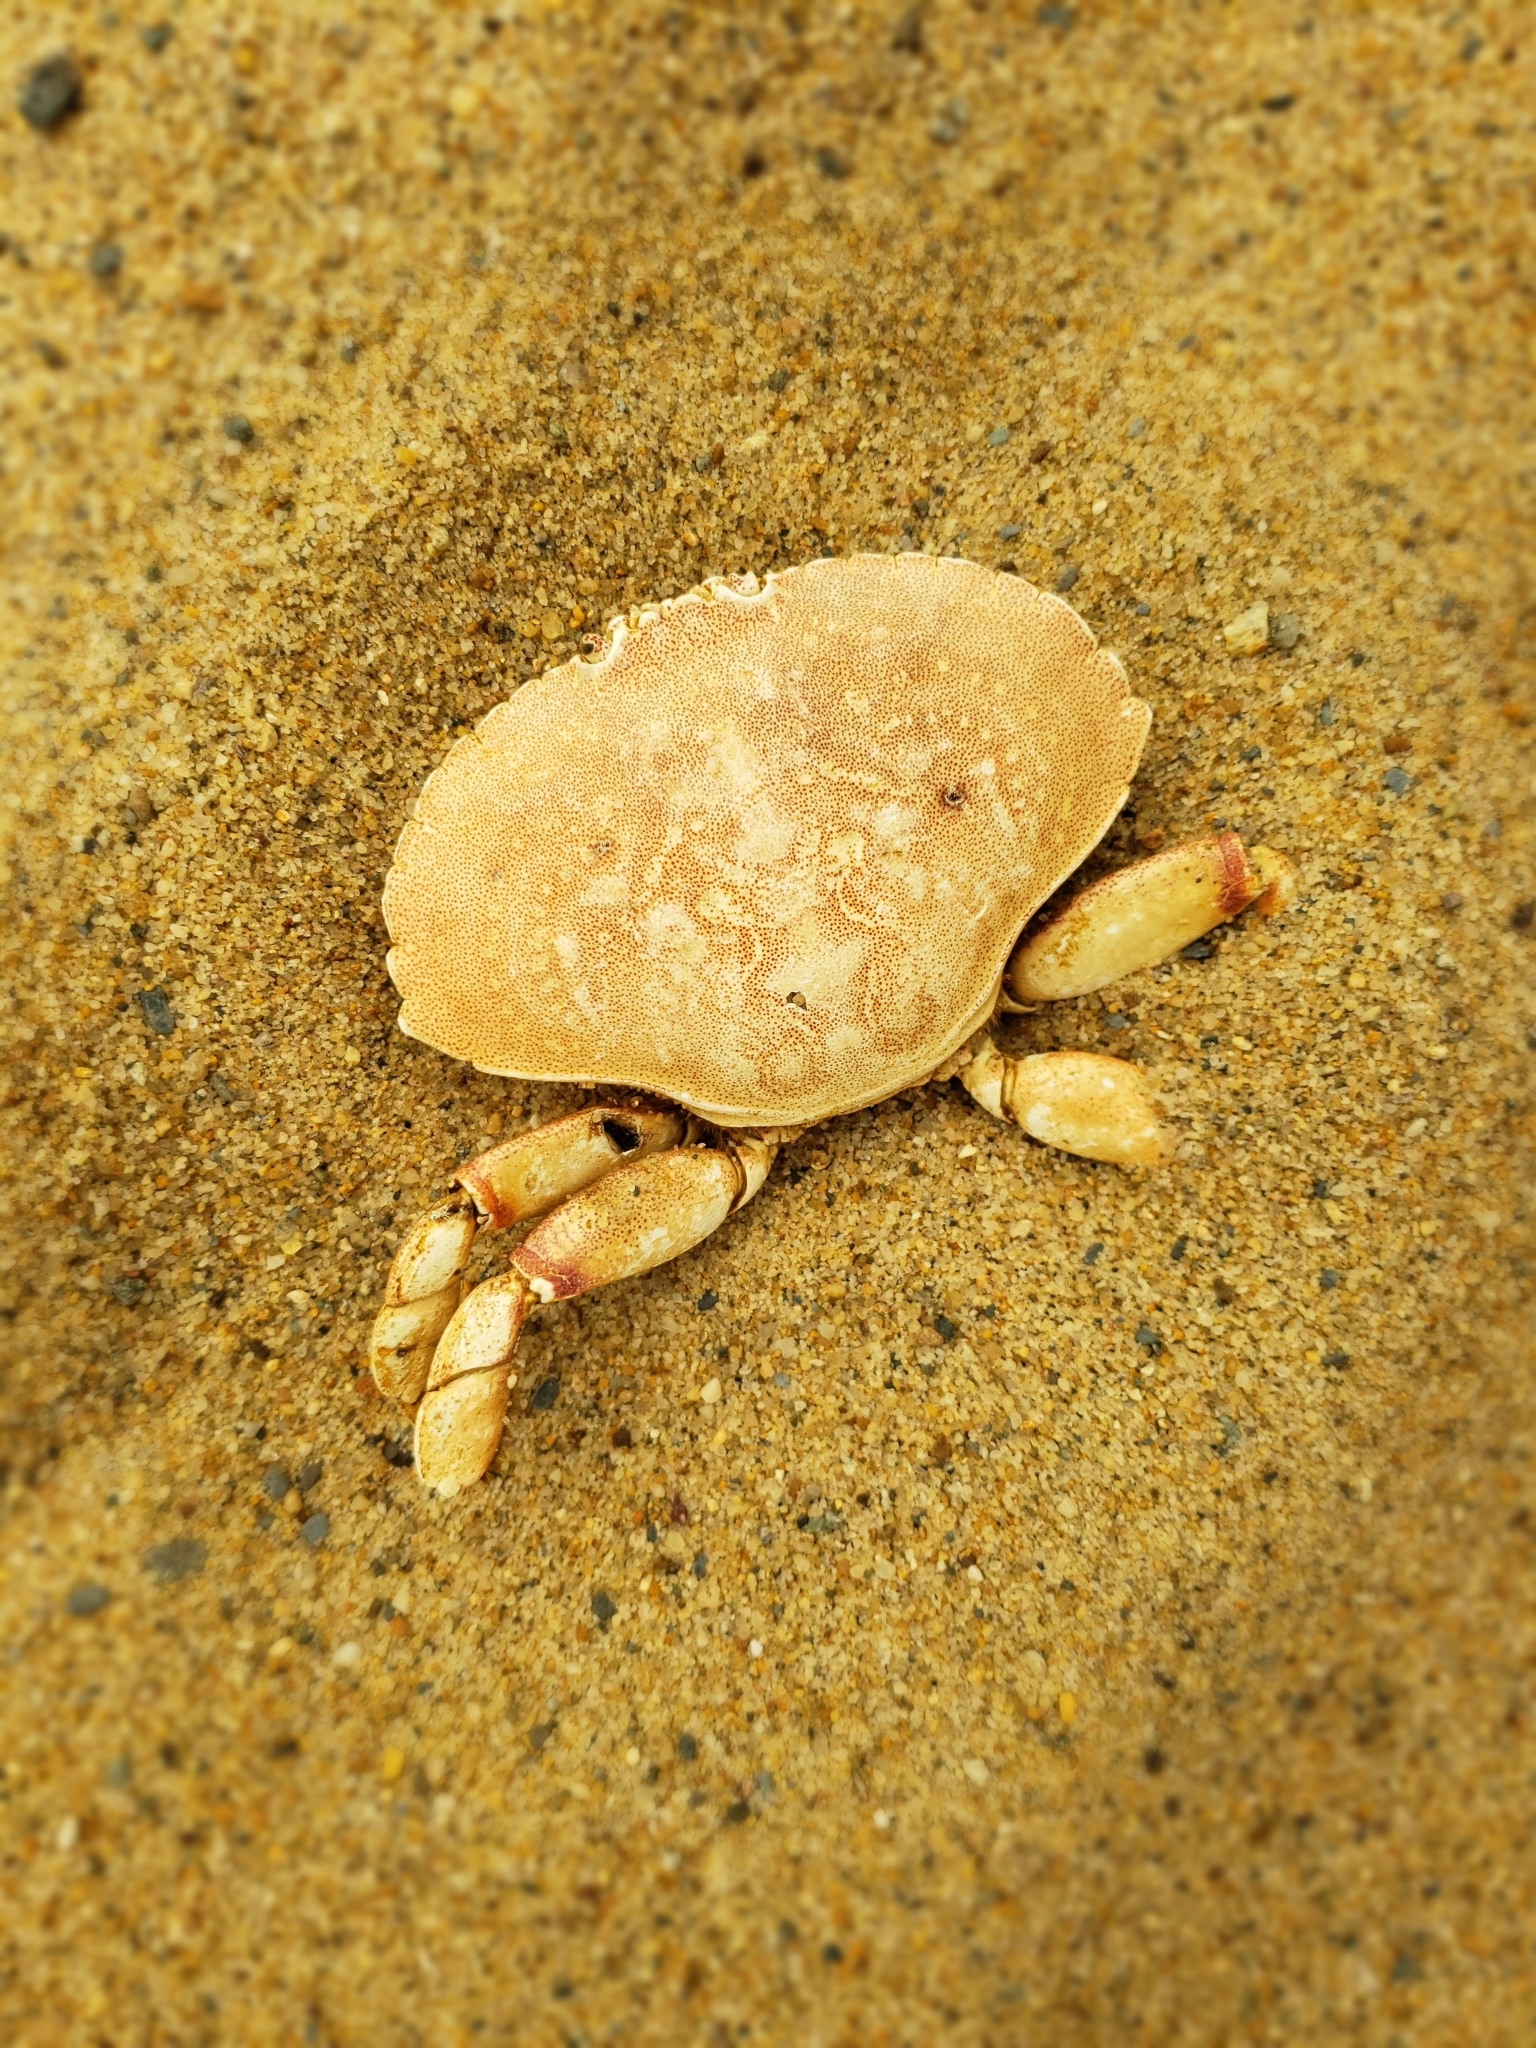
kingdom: Animalia
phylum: Arthropoda
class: Malacostraca
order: Decapoda
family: Cancridae
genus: Cancer
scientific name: Cancer irroratus
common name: Atlantic rock crab
